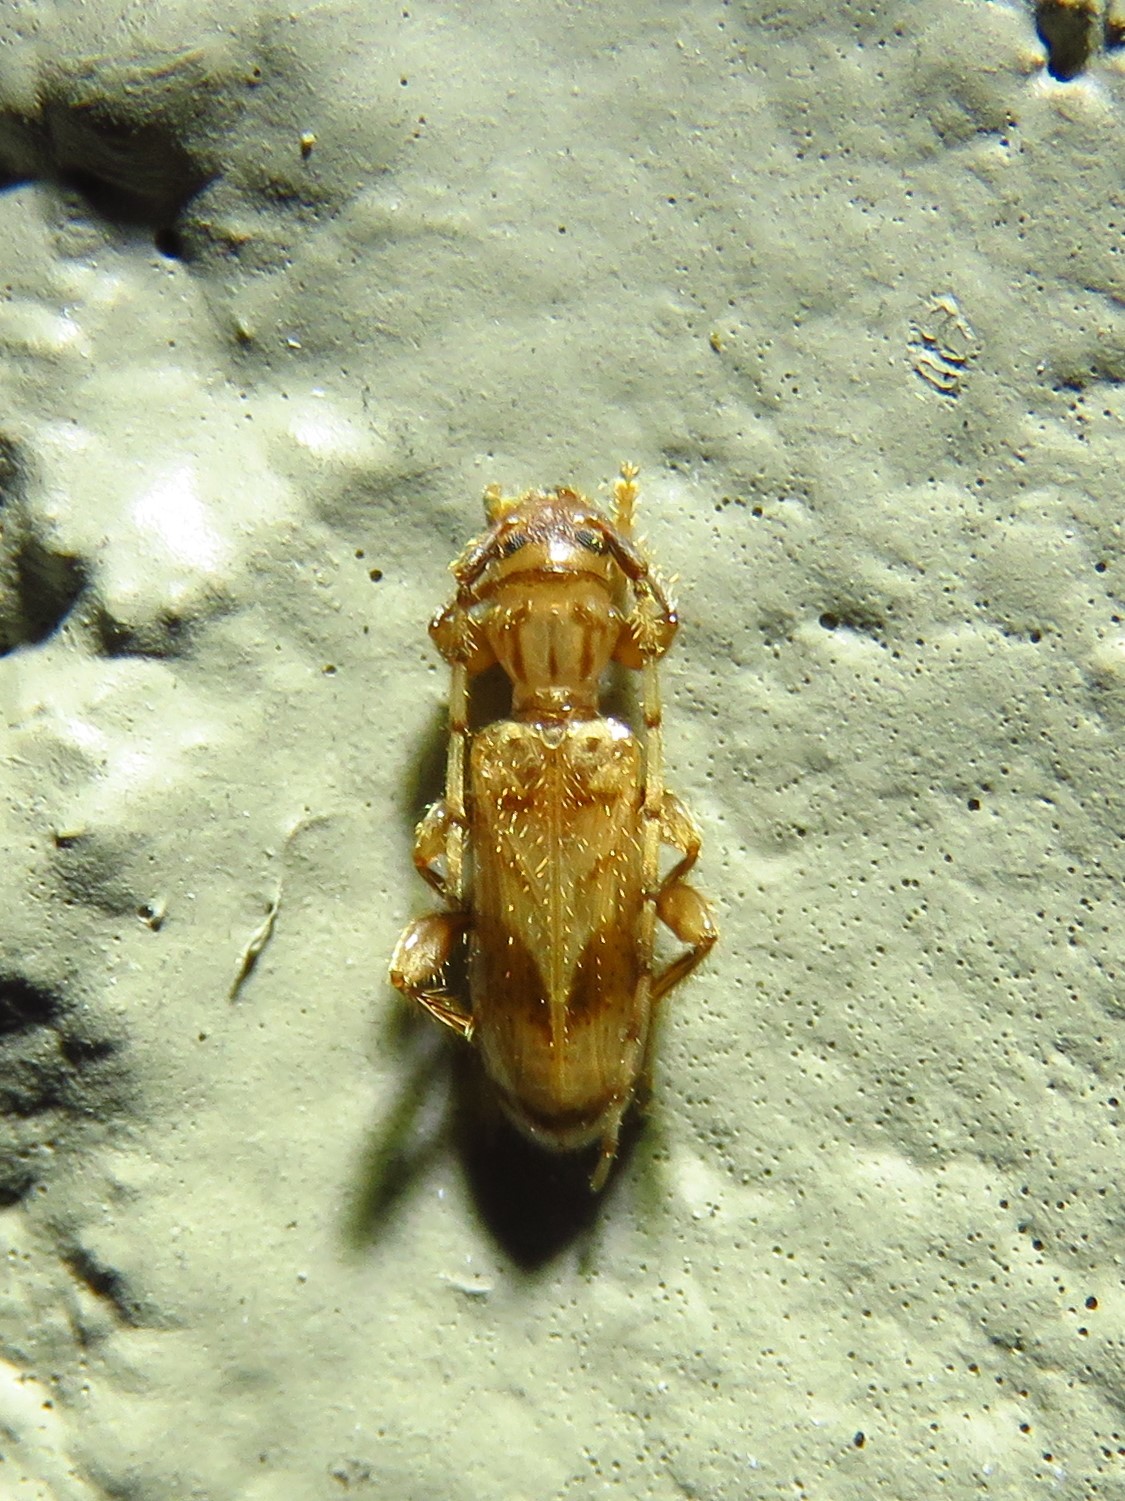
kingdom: Animalia
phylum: Arthropoda
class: Insecta
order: Coleoptera
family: Cerambycidae
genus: Obrium
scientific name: Obrium maculatum
